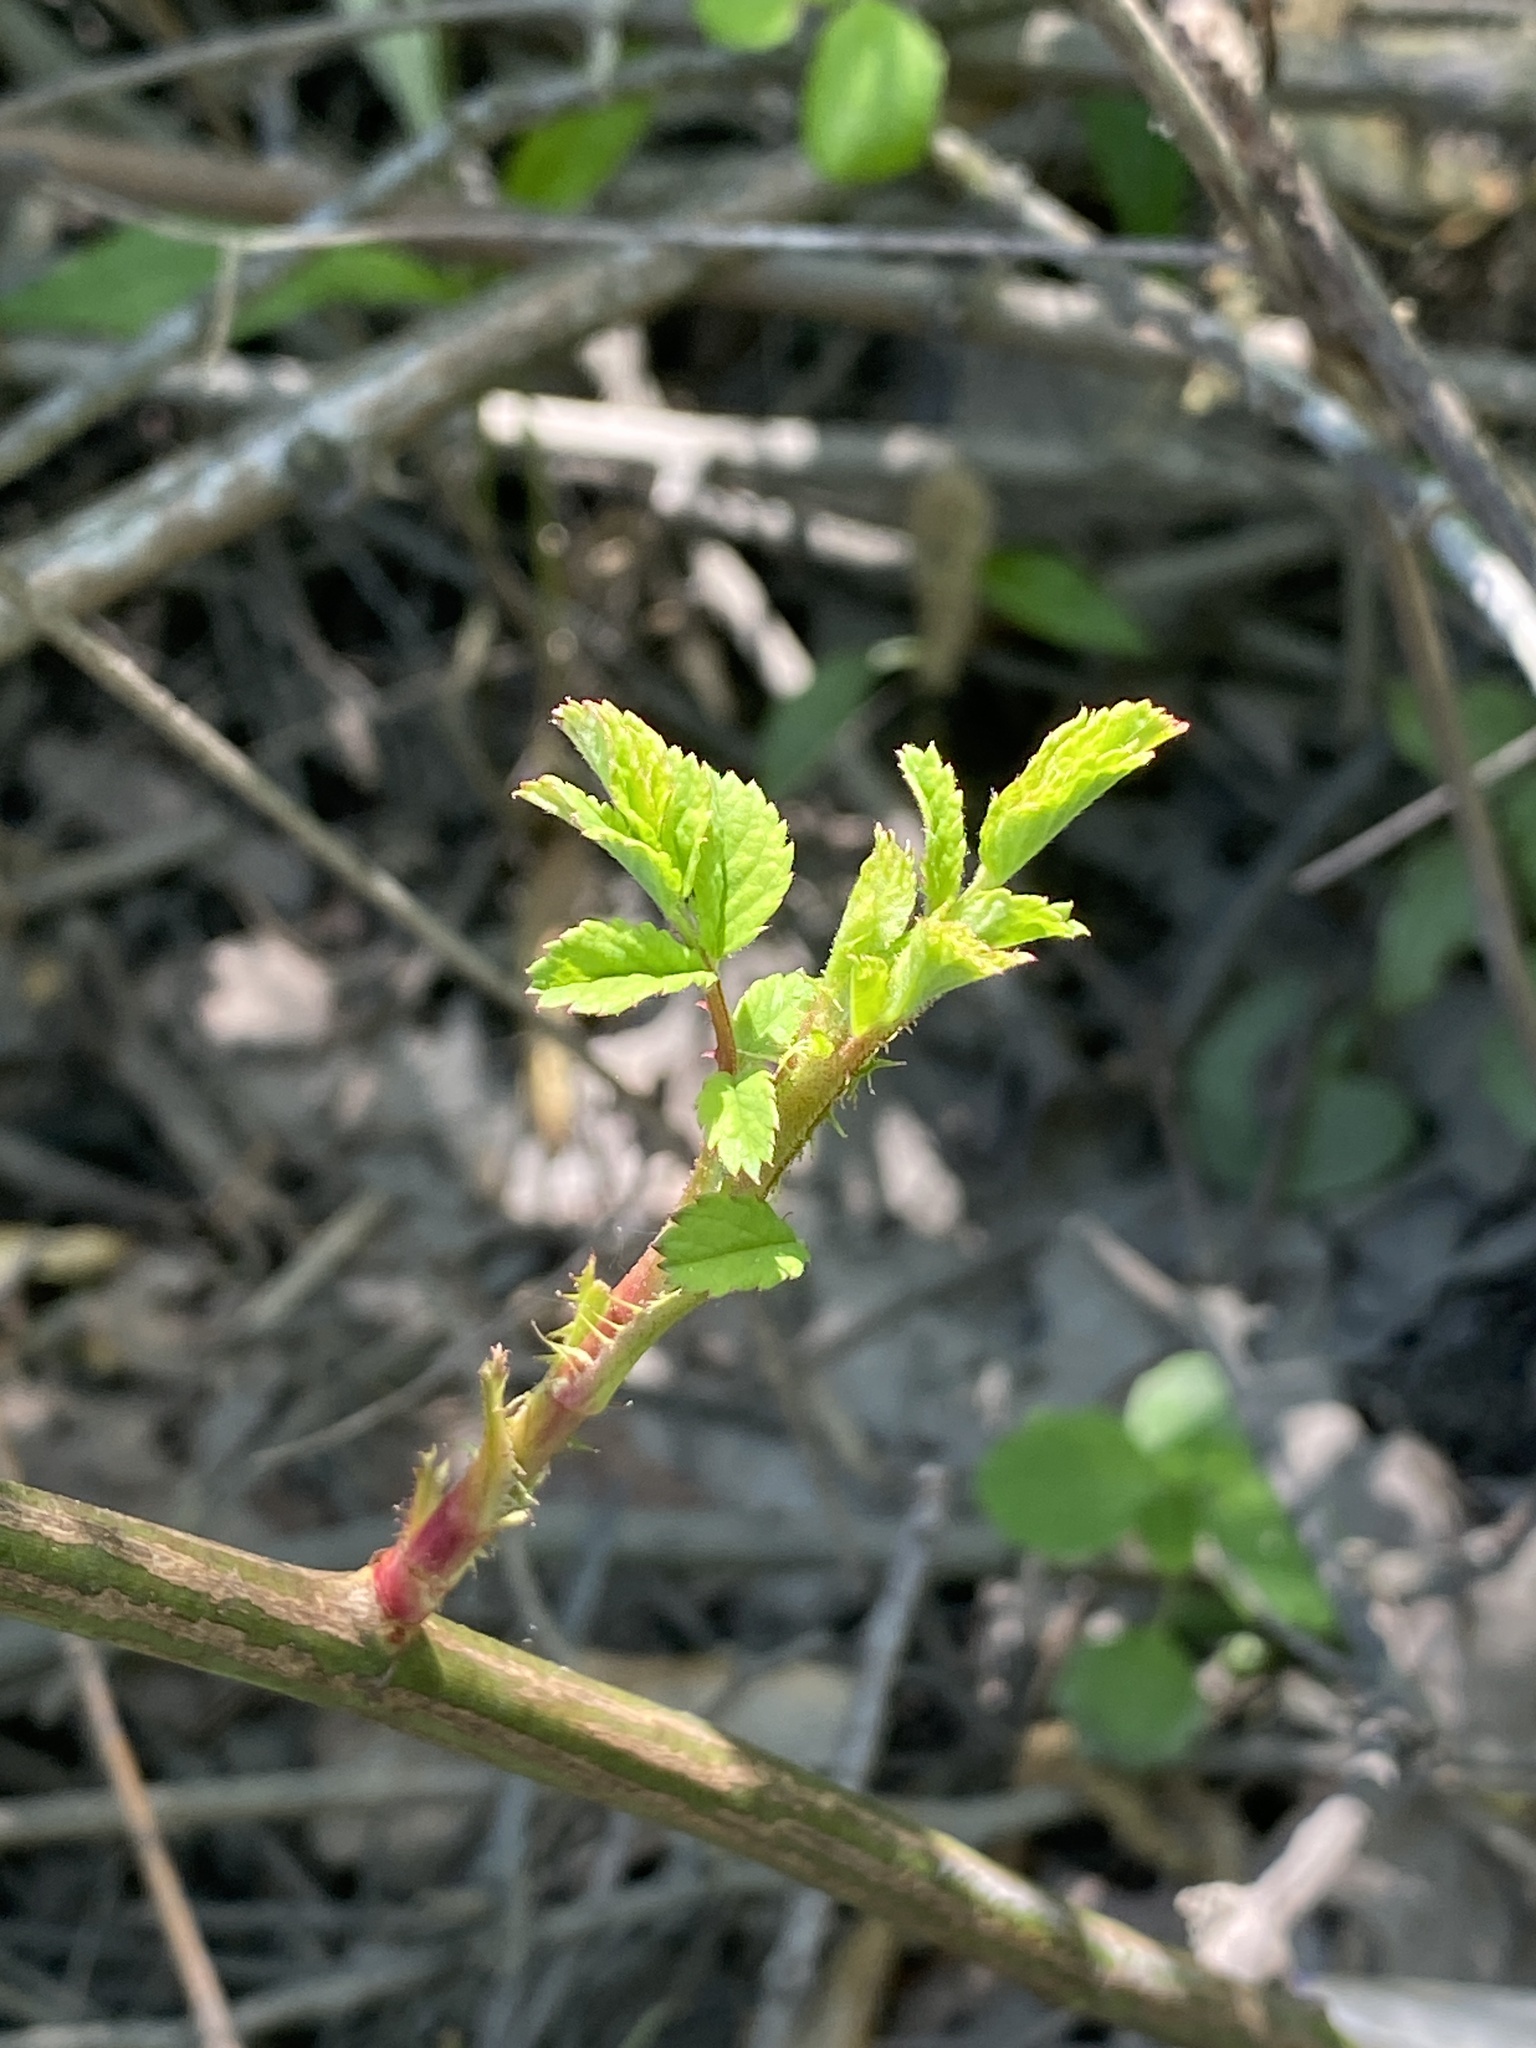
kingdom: Plantae
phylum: Tracheophyta
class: Magnoliopsida
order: Rosales
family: Rosaceae
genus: Rosa
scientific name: Rosa multiflora
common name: Multiflora rose
